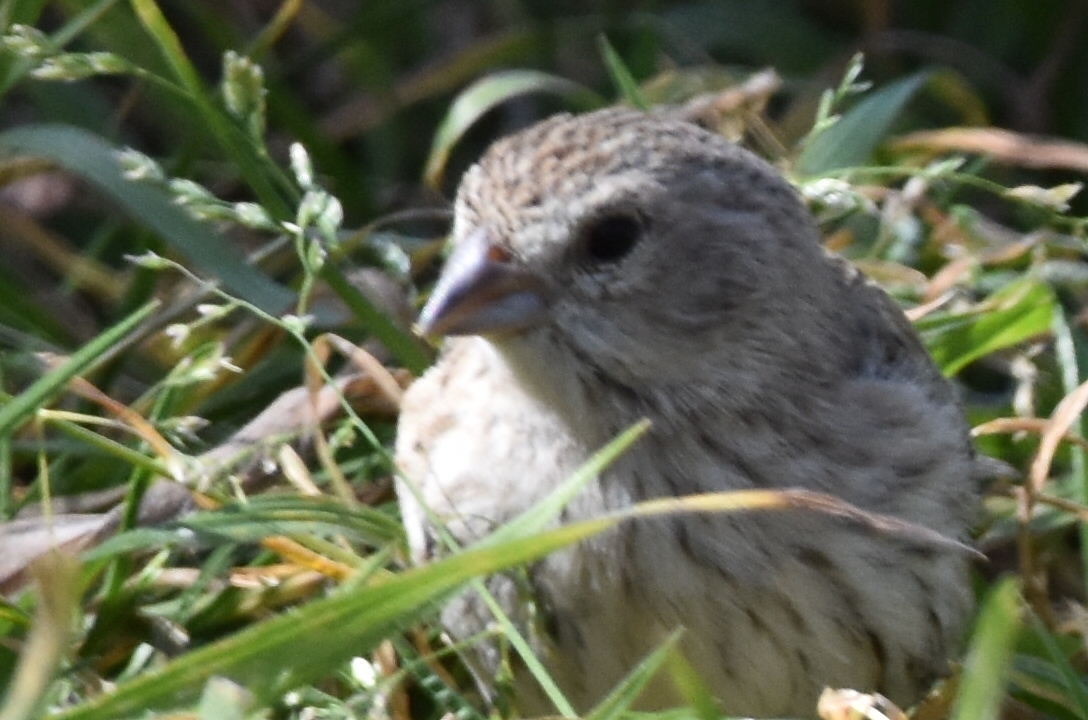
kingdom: Animalia
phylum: Chordata
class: Aves
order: Passeriformes
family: Thraupidae
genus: Sicalis
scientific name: Sicalis flaveola
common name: Saffron finch
